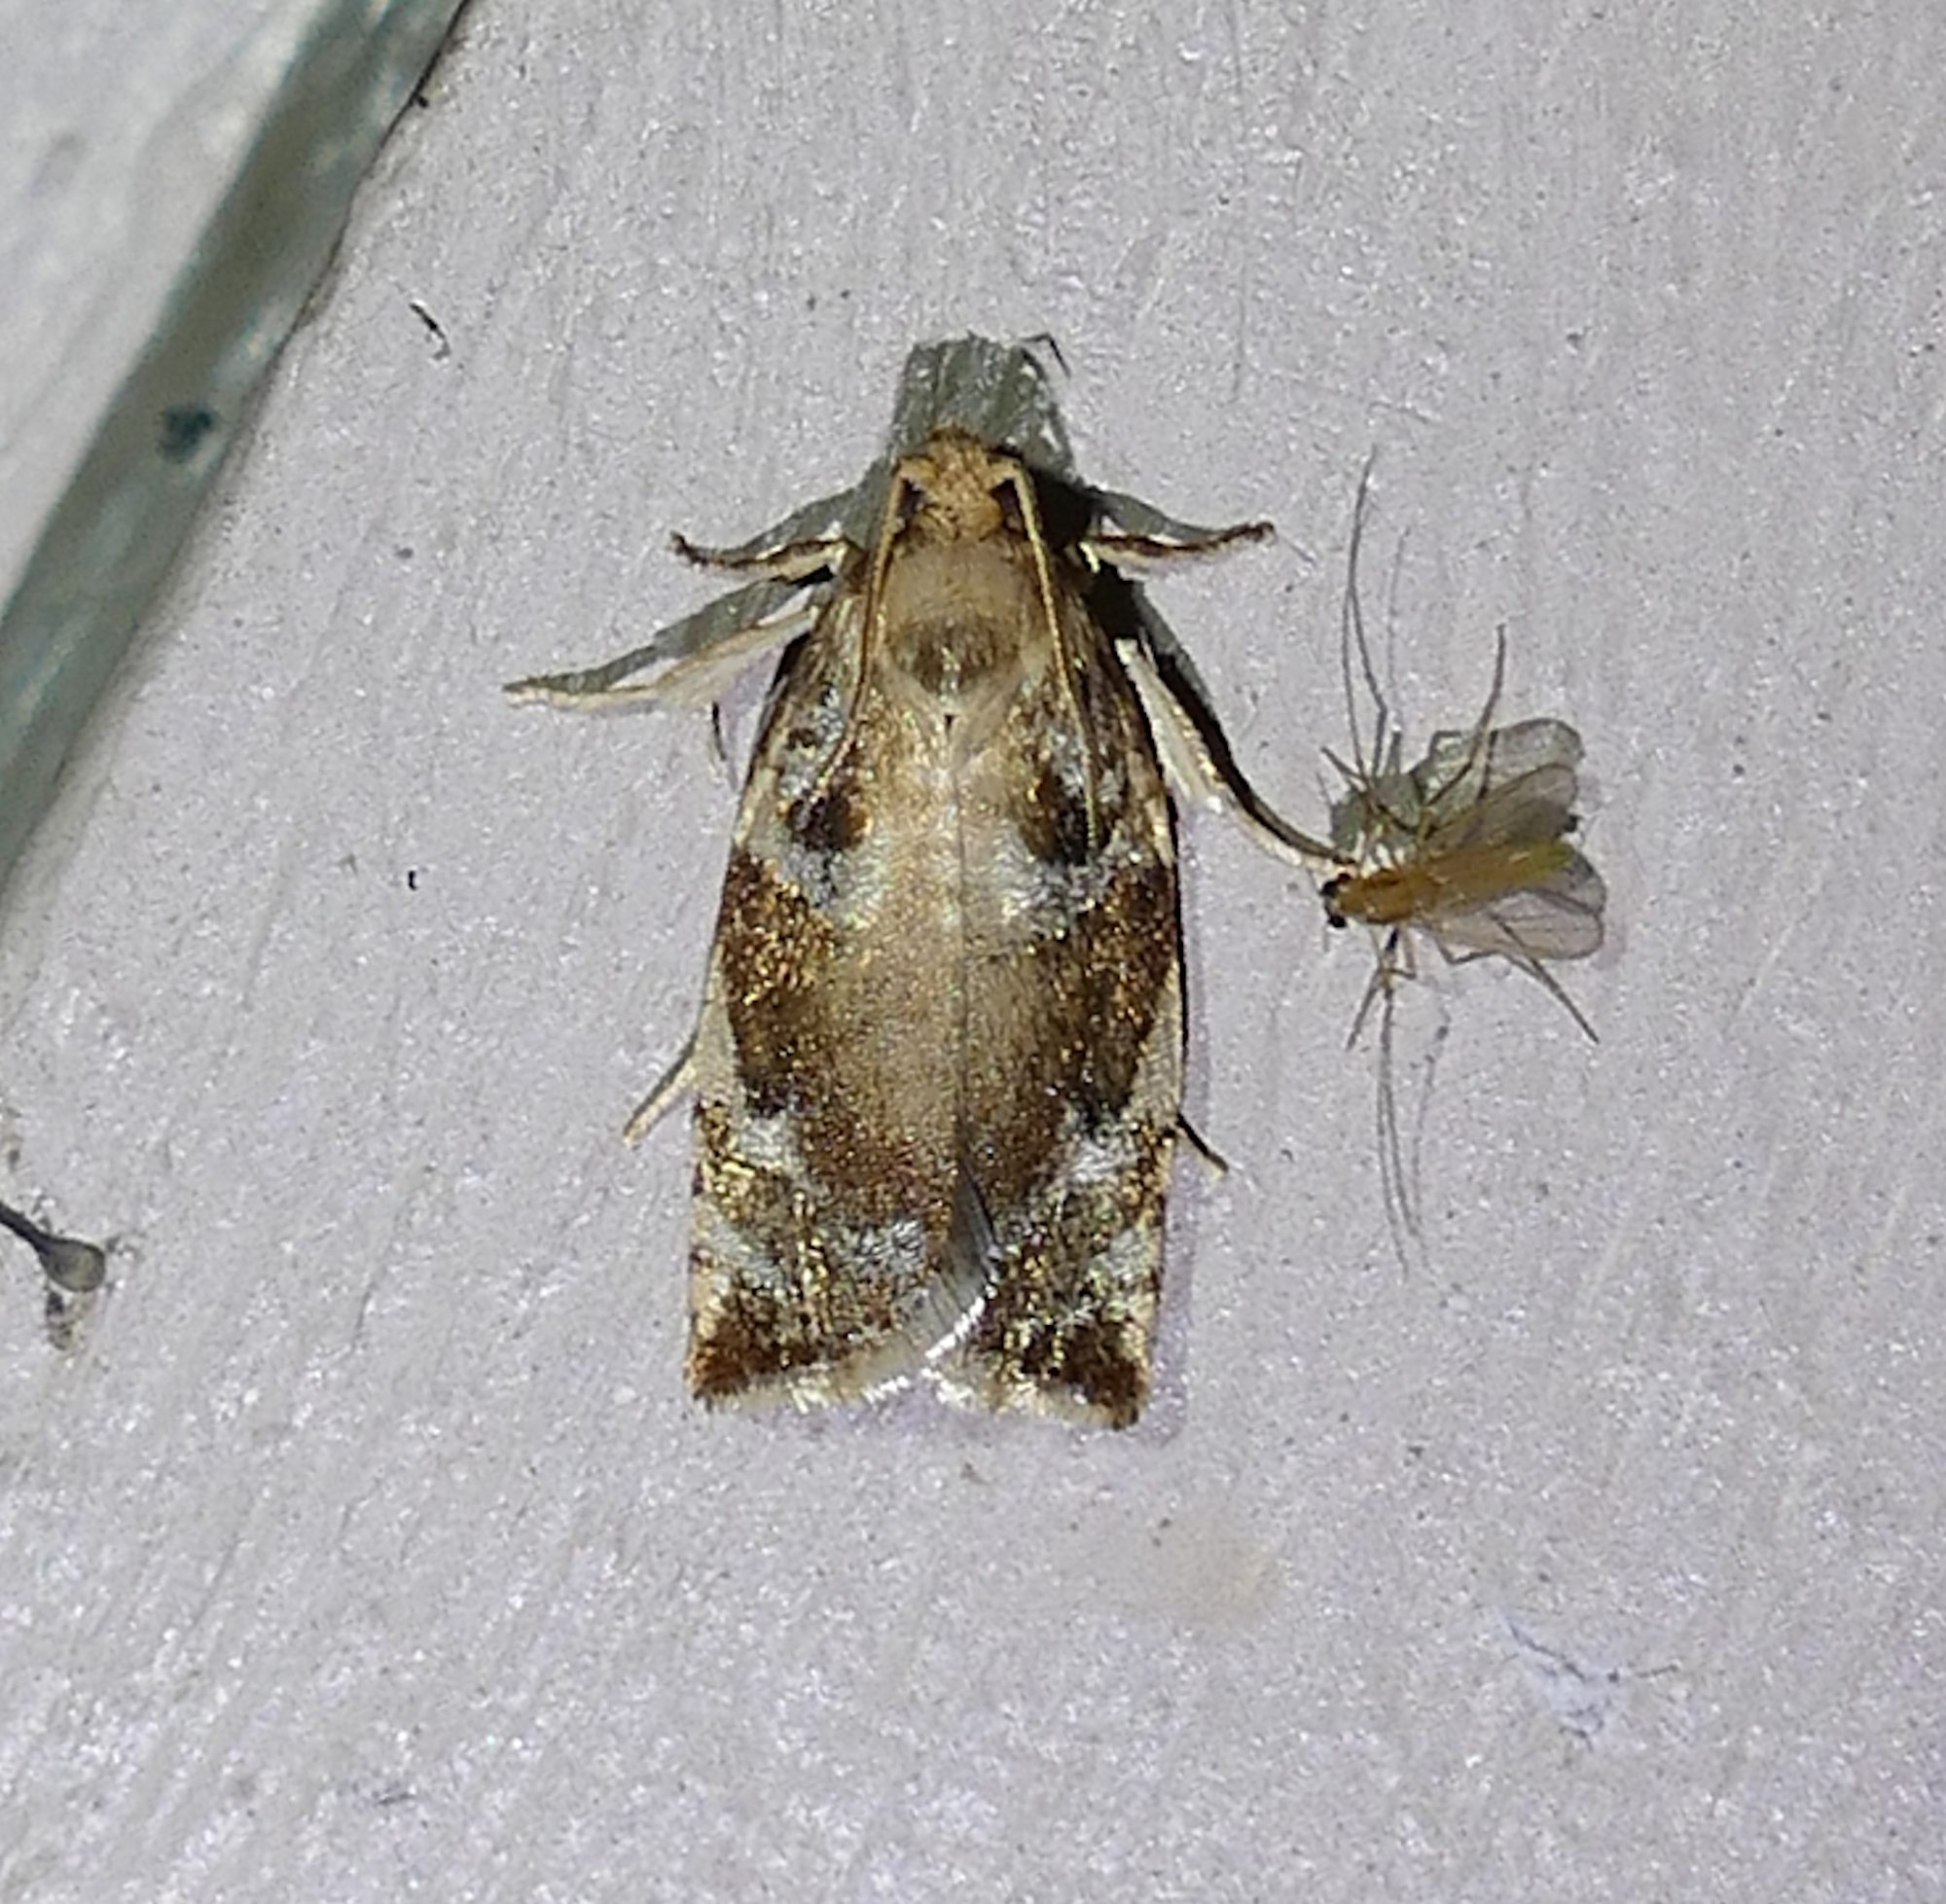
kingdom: Animalia
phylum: Arthropoda
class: Insecta
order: Lepidoptera
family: Tortricidae
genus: Archips
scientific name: Archips semiferanus
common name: Oak leafroller
